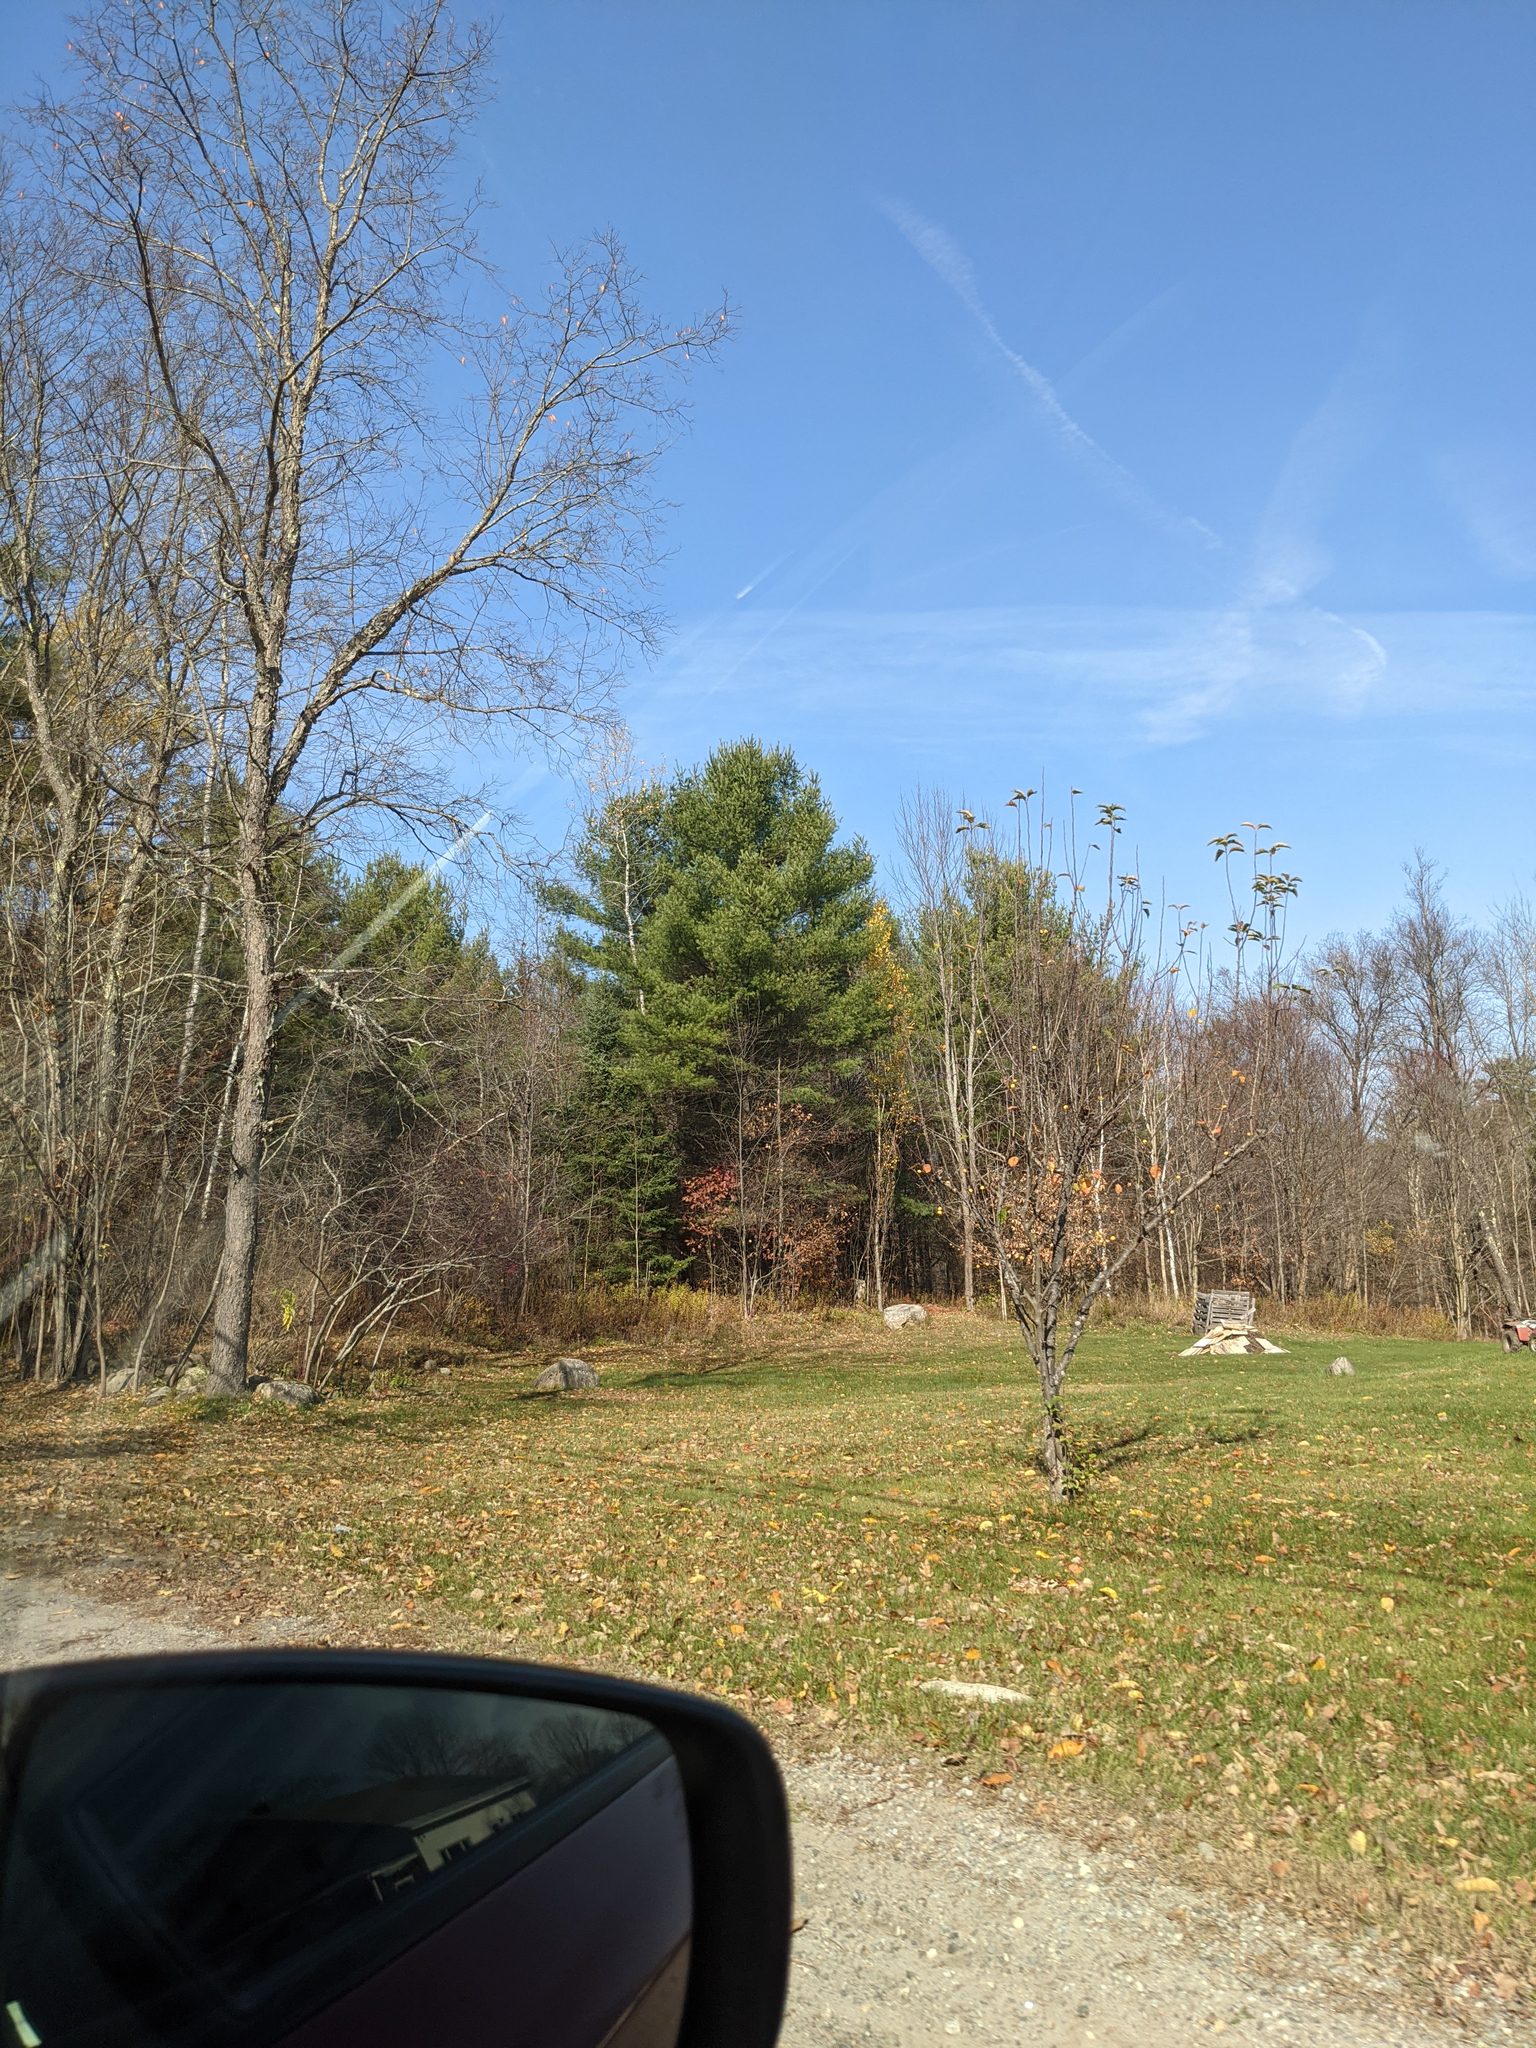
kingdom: Plantae
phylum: Tracheophyta
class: Pinopsida
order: Pinales
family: Pinaceae
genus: Pinus
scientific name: Pinus strobus
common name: Weymouth pine
